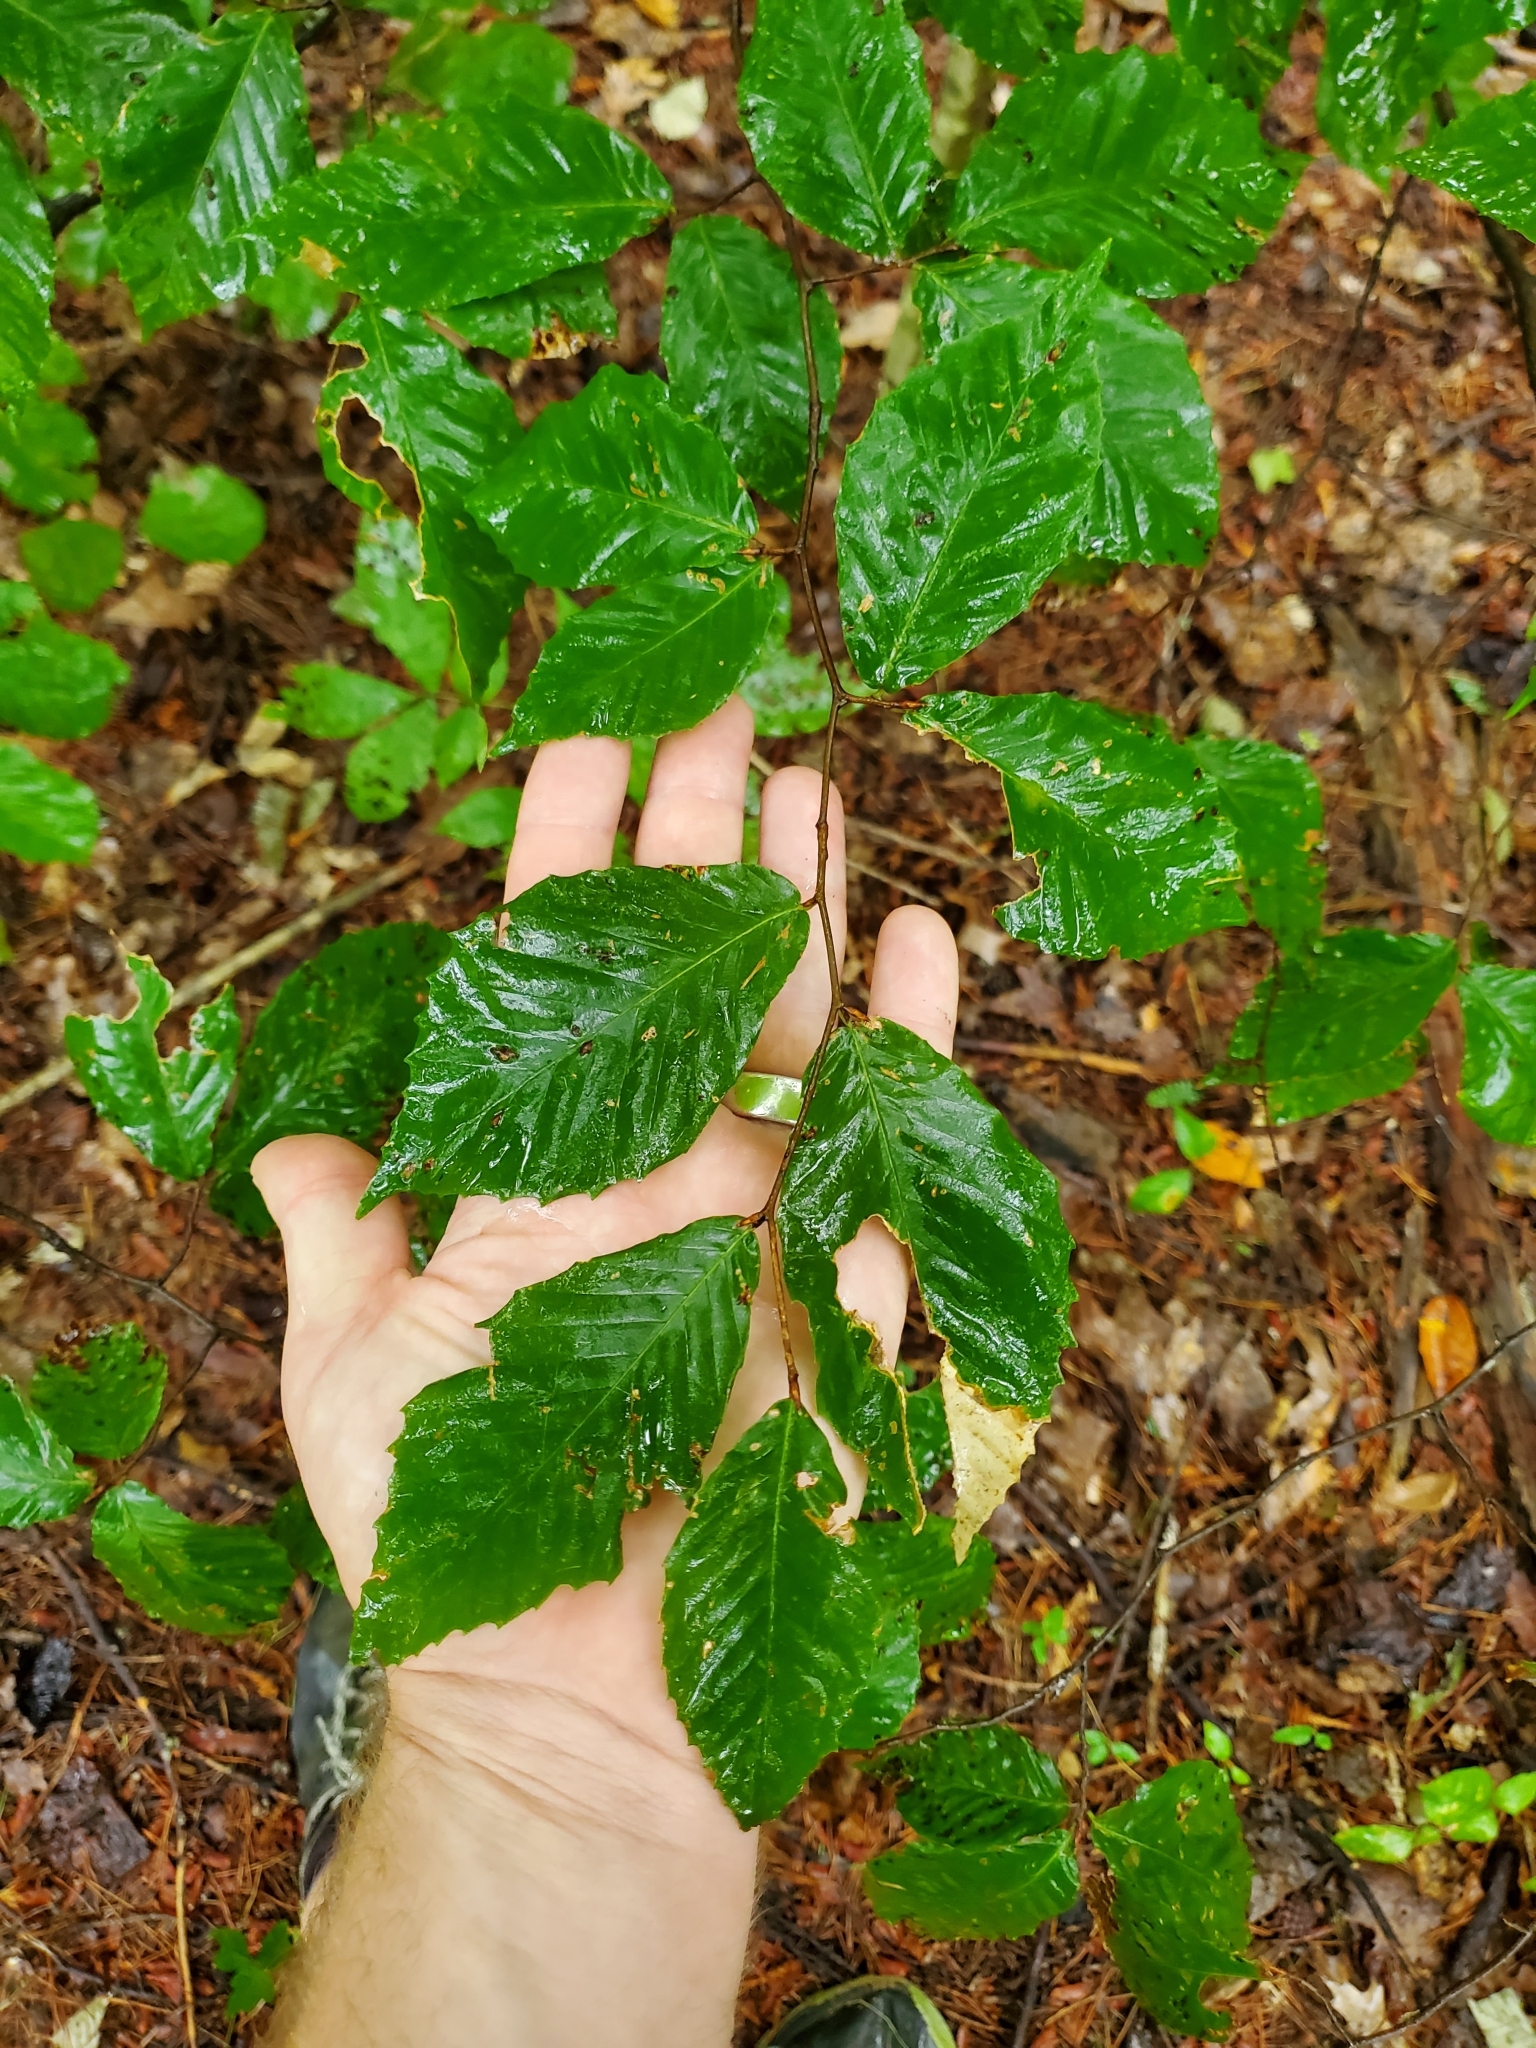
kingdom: Plantae
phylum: Tracheophyta
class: Magnoliopsida
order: Fagales
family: Fagaceae
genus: Fagus
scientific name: Fagus grandifolia
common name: American beech
